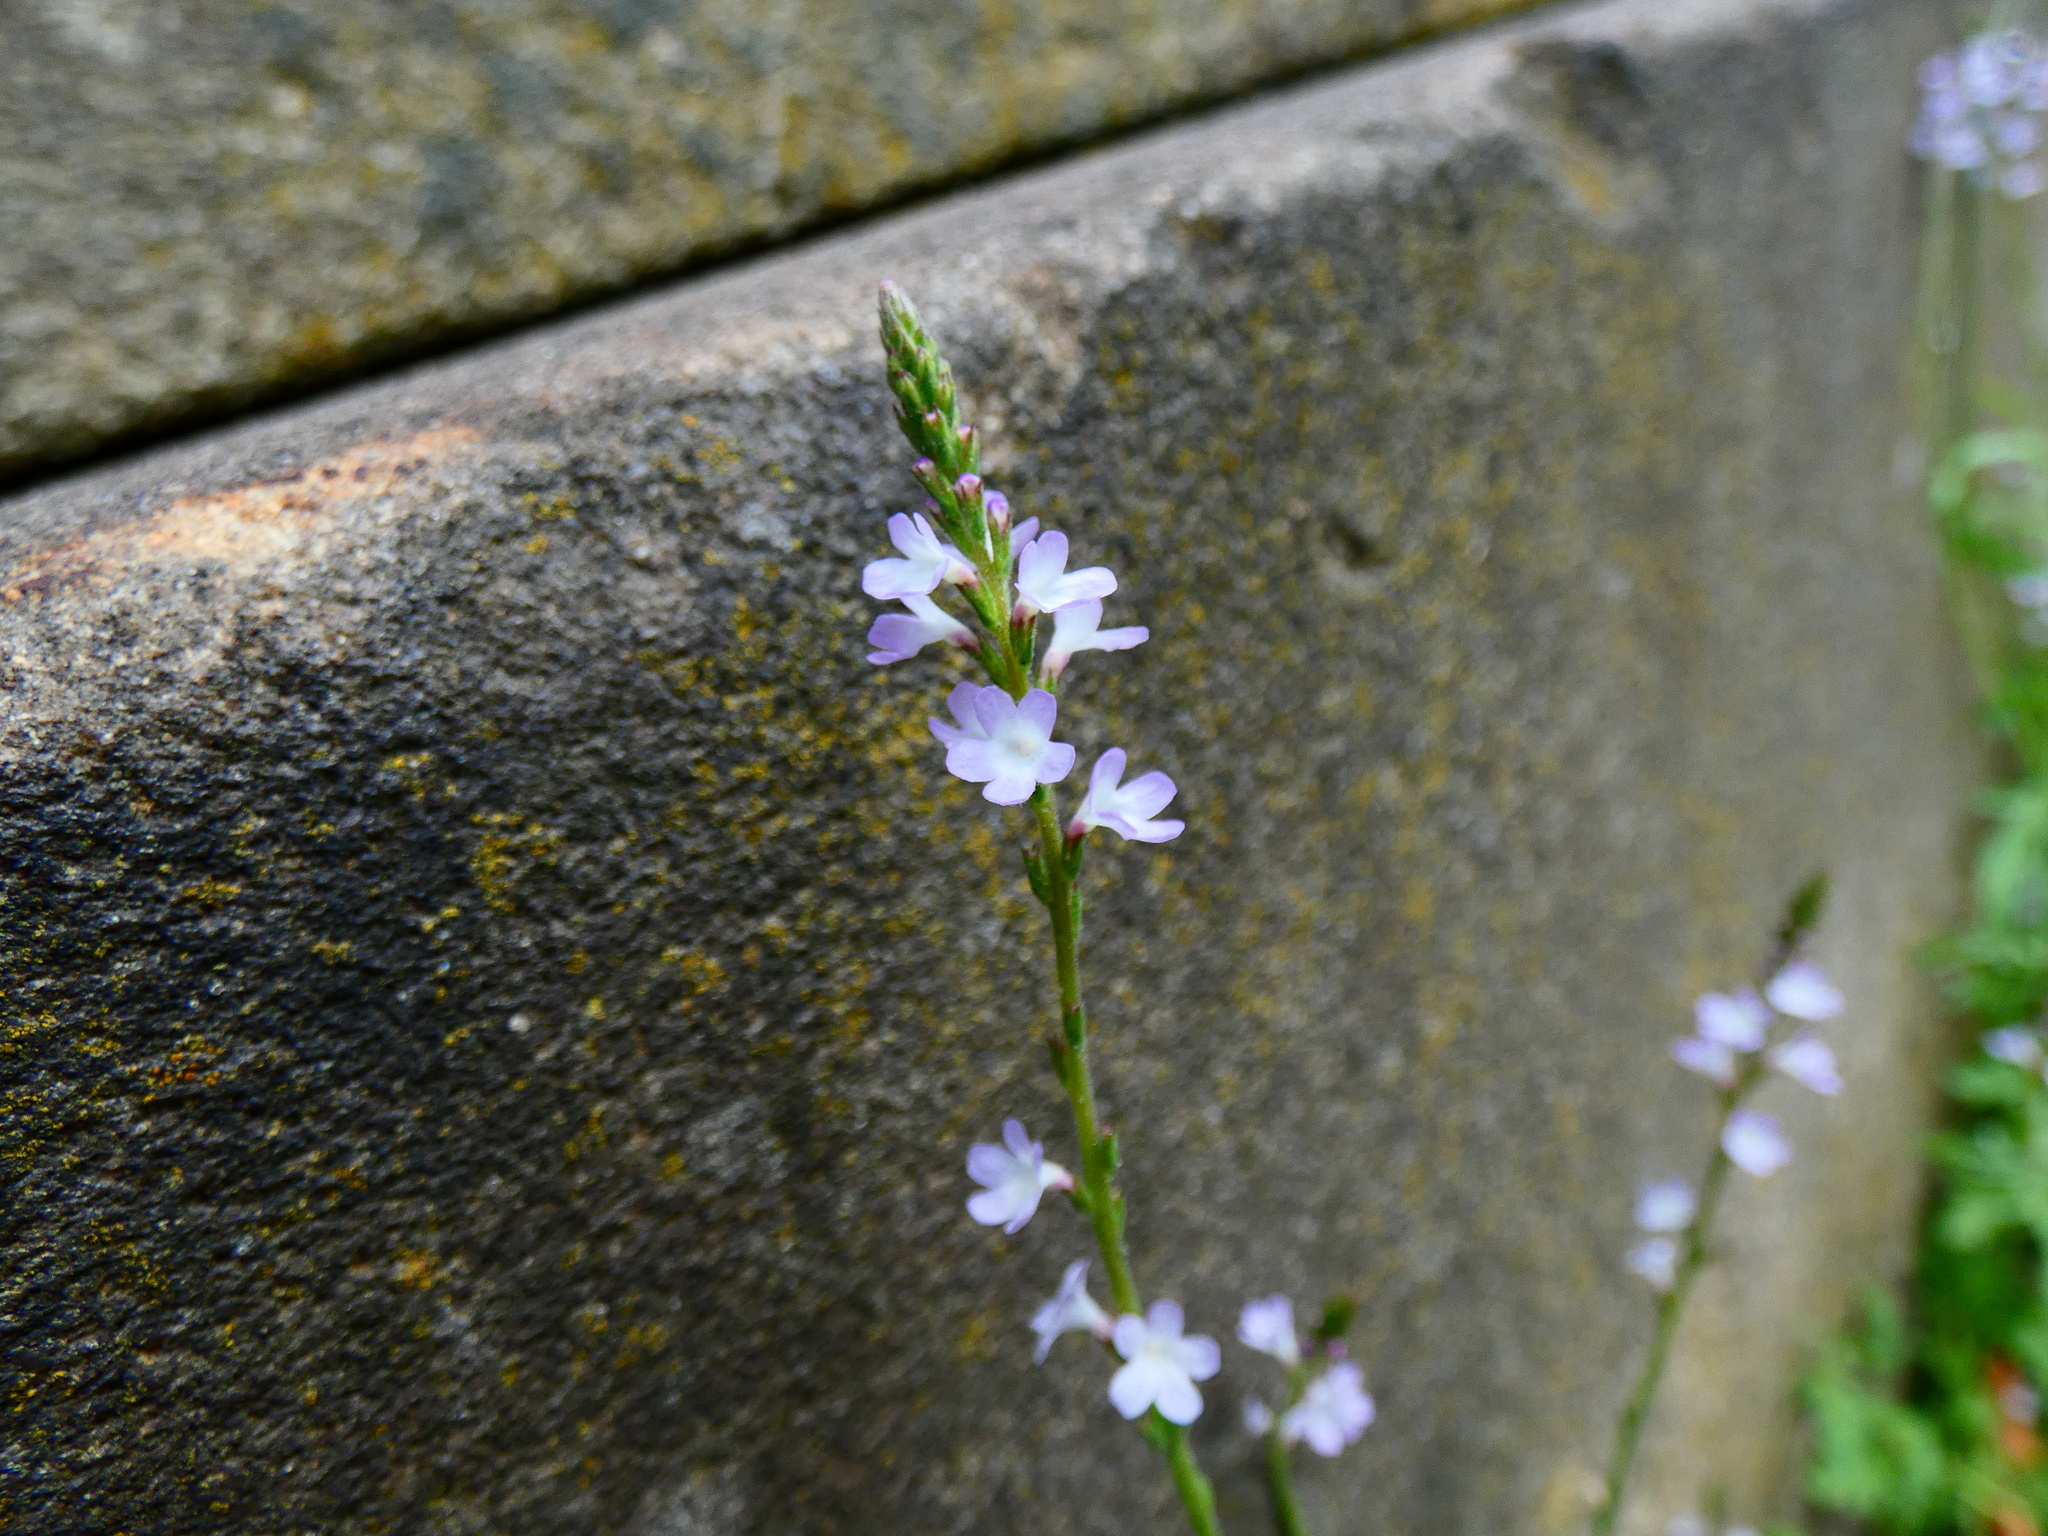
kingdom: Plantae
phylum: Tracheophyta
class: Magnoliopsida
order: Lamiales
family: Verbenaceae
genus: Verbena
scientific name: Verbena officinalis
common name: Vervain
